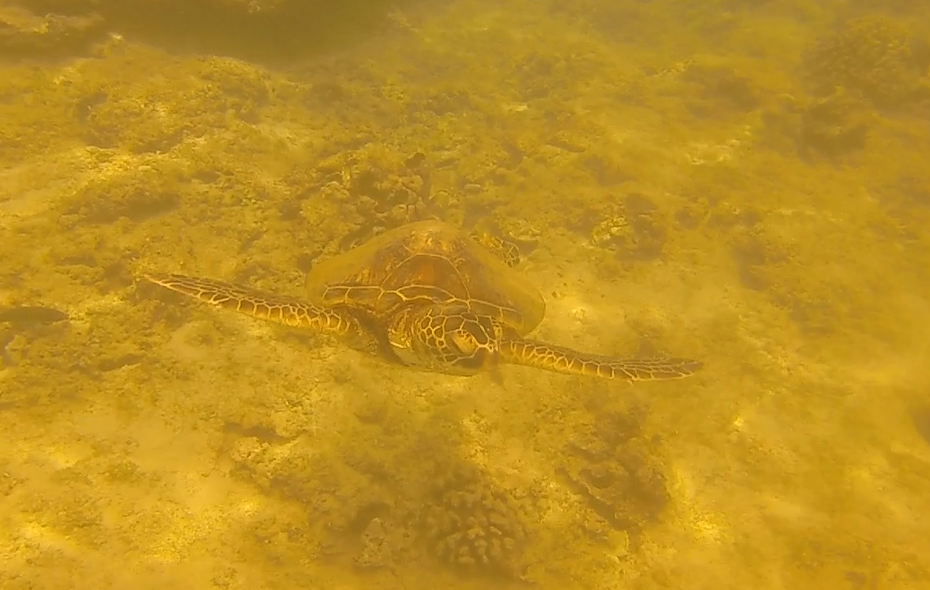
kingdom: Animalia
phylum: Chordata
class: Testudines
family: Cheloniidae
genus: Chelonia
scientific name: Chelonia mydas
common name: Green turtle
